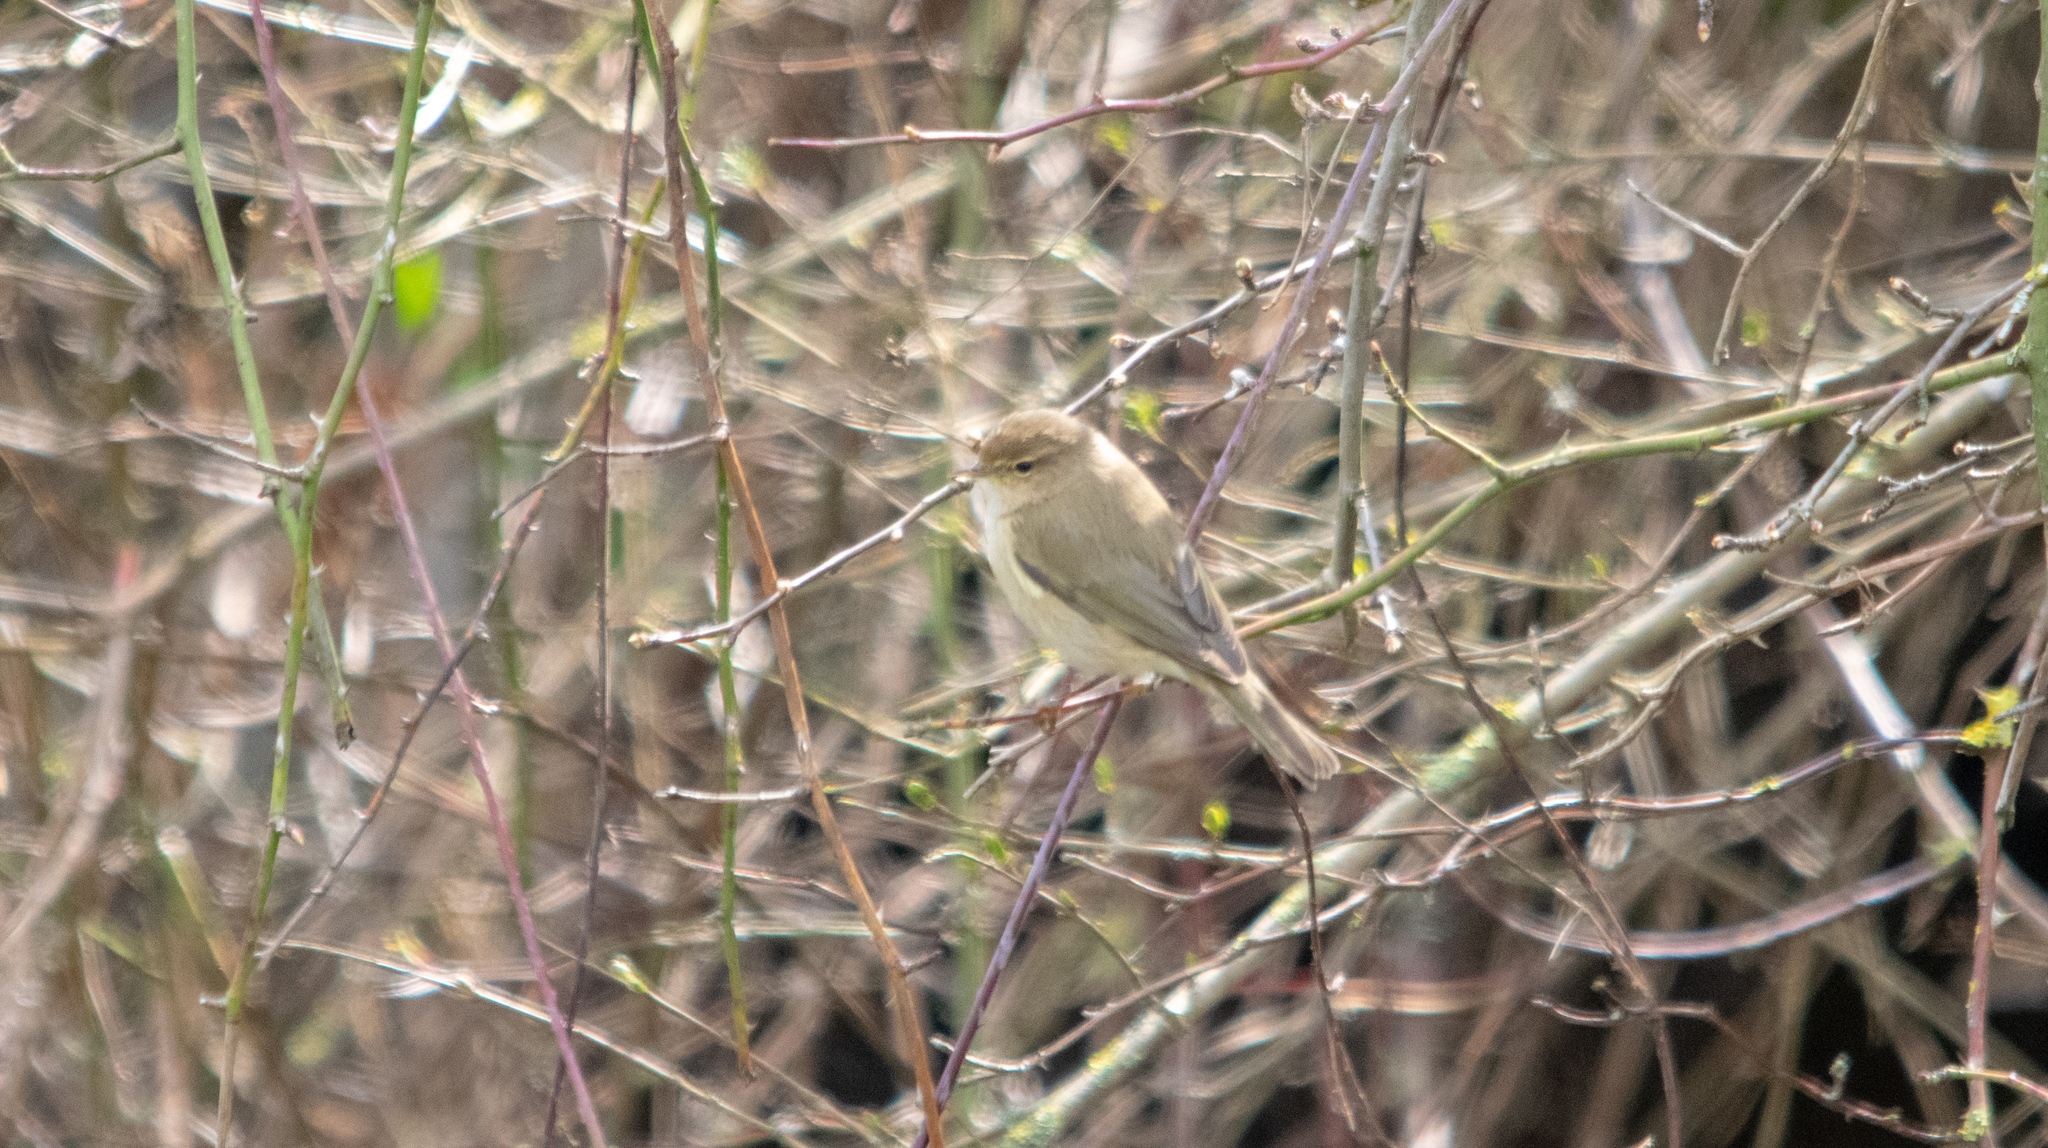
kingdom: Animalia
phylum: Chordata
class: Aves
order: Passeriformes
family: Phylloscopidae
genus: Phylloscopus
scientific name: Phylloscopus collybita
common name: Common chiffchaff
